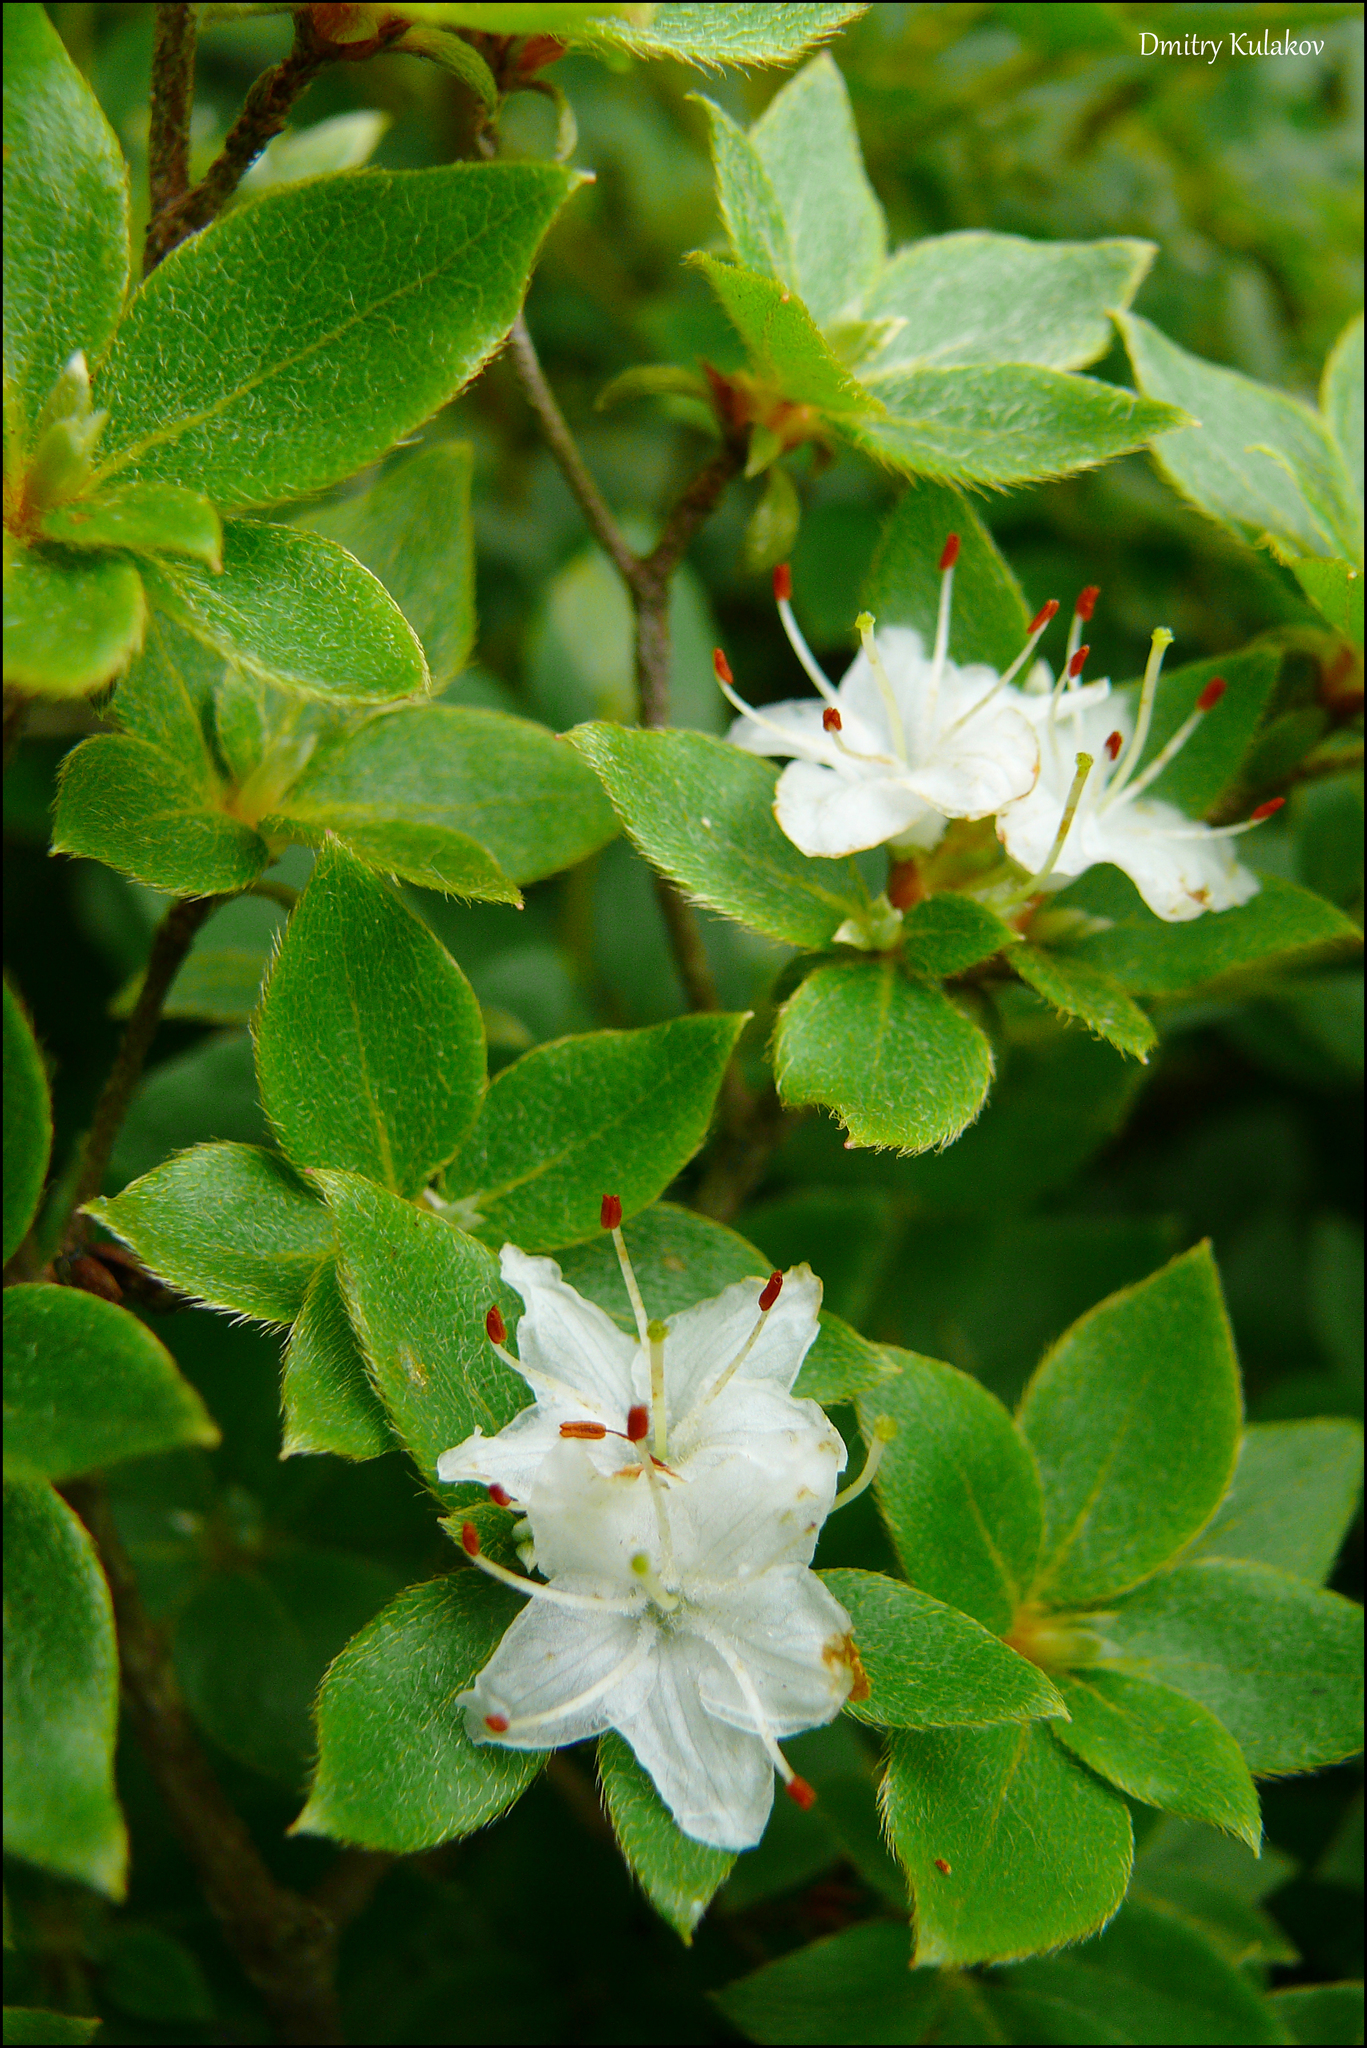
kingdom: Plantae
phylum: Tracheophyta
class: Magnoliopsida
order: Ericales
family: Ericaceae
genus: Rhododendron
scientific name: Rhododendron tschonoskii
